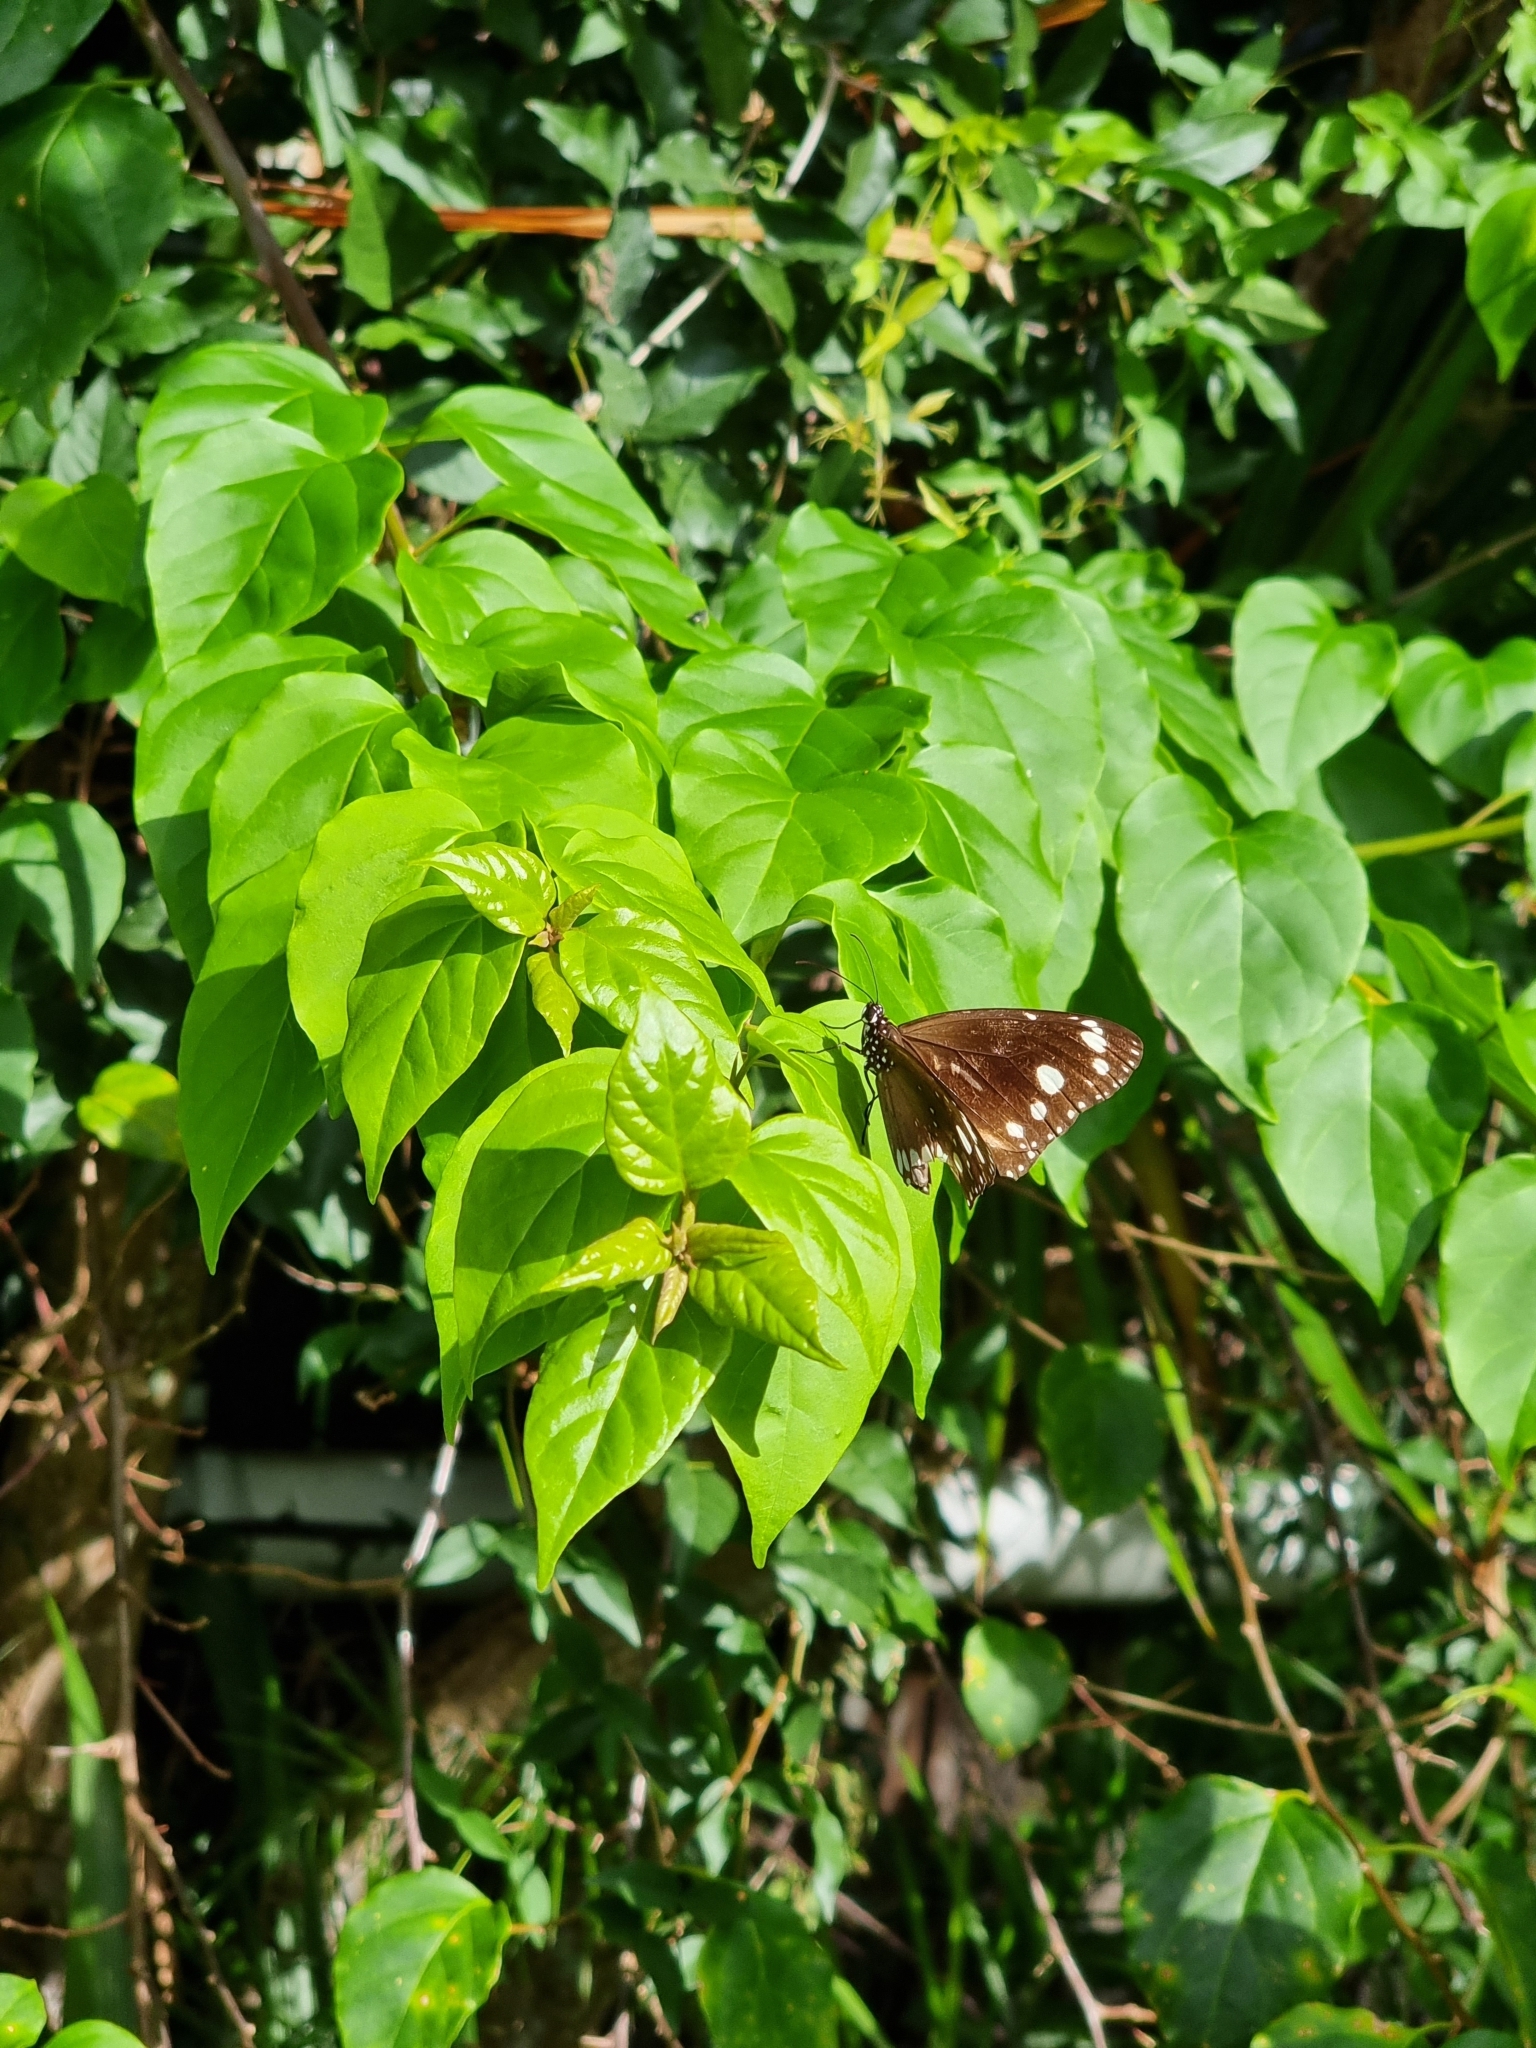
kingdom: Animalia
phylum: Arthropoda
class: Insecta
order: Lepidoptera
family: Nymphalidae
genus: Euploea
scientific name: Euploea core
